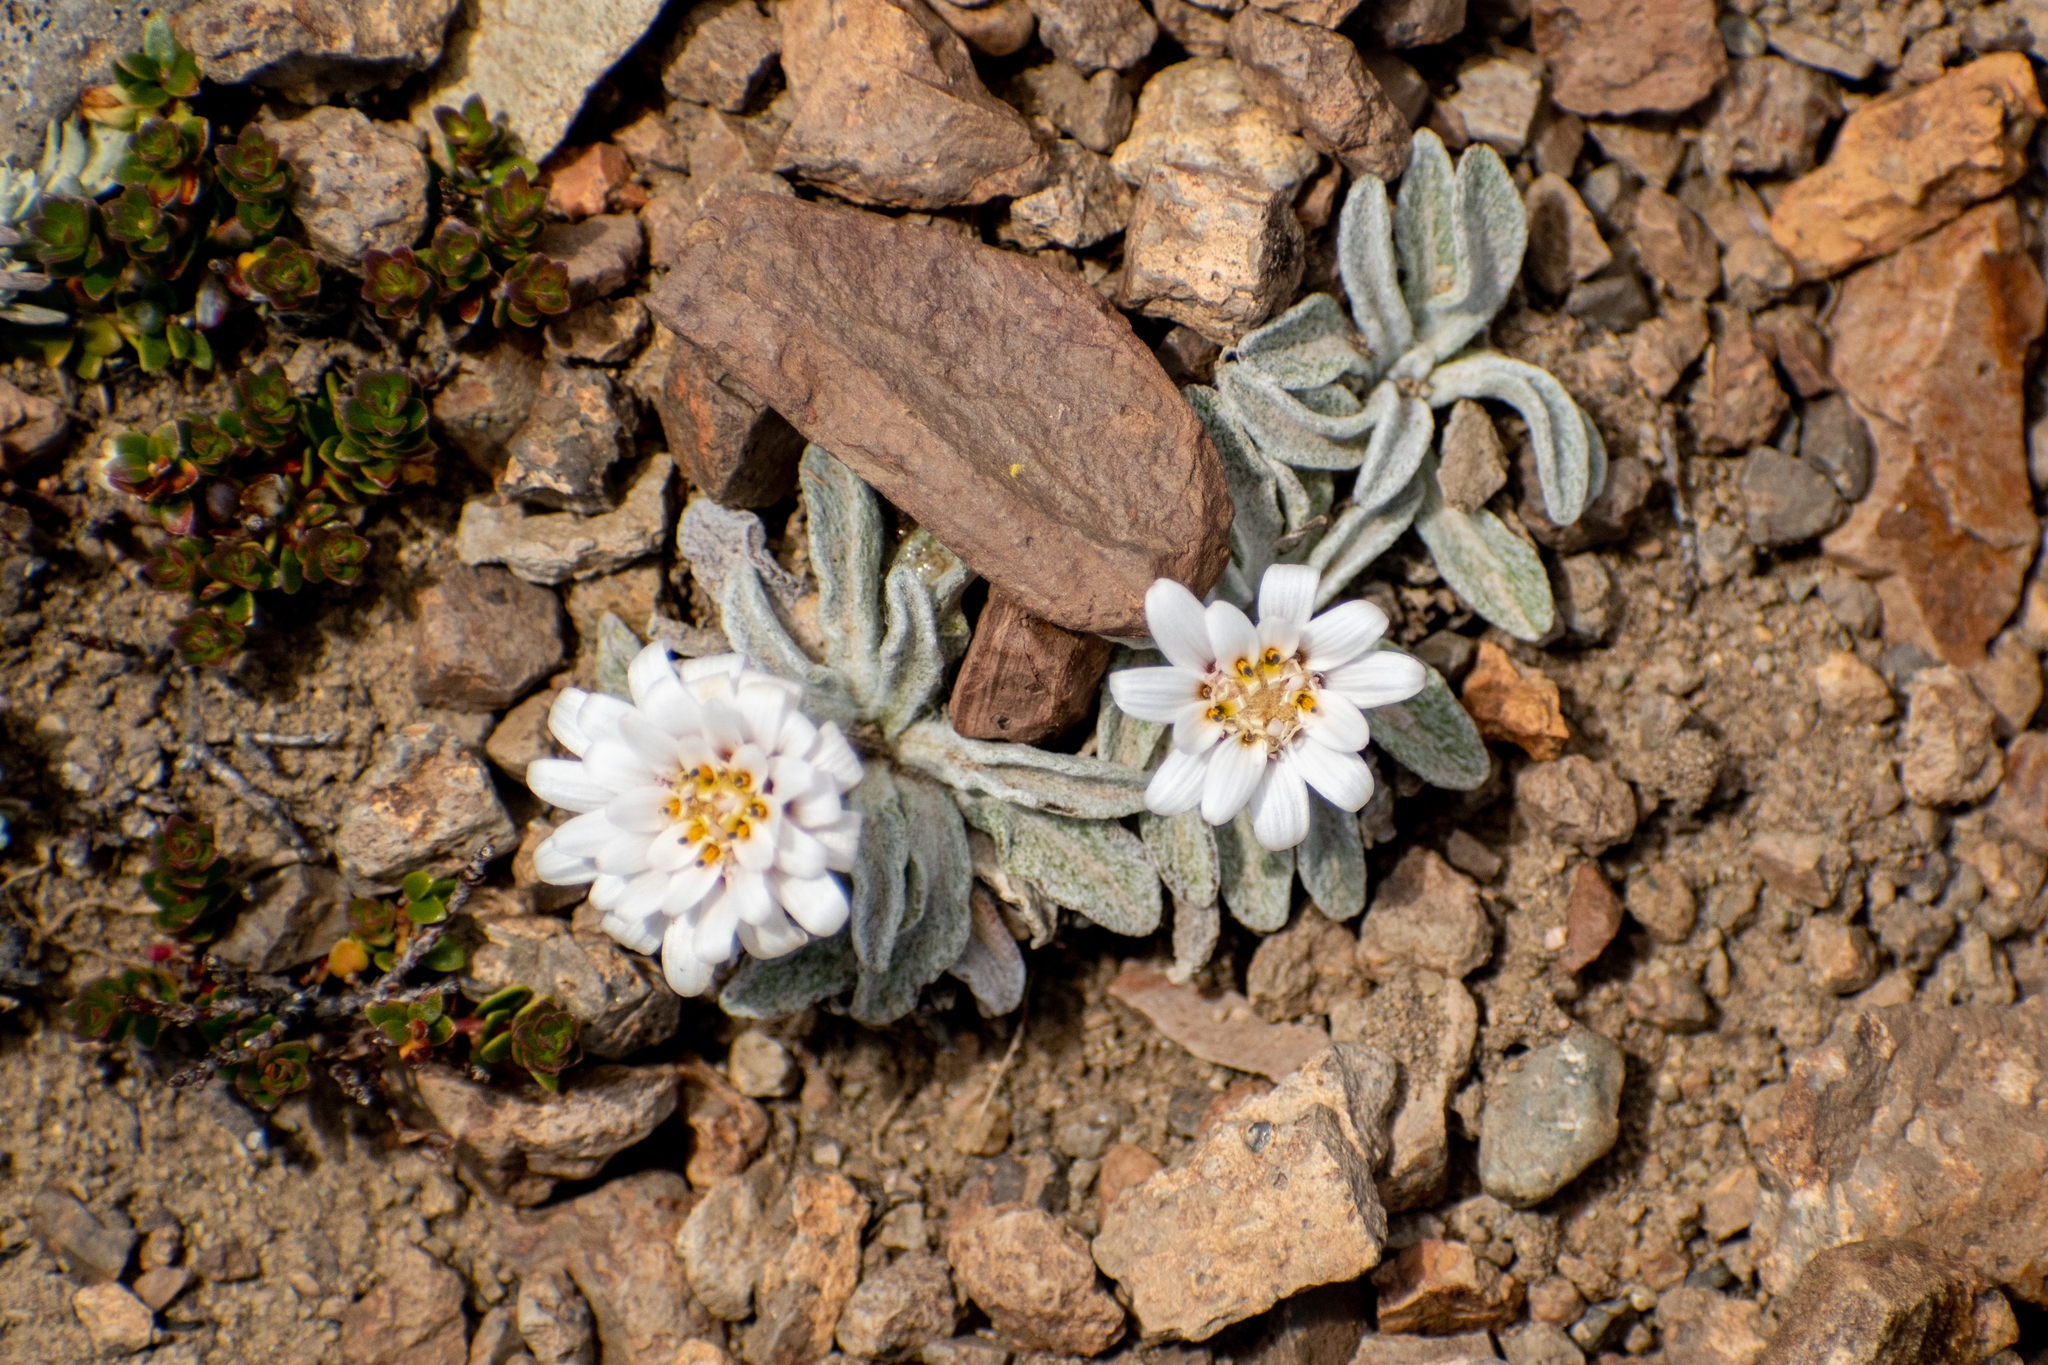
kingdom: Plantae
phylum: Tracheophyta
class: Magnoliopsida
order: Asterales
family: Asteraceae
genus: Leucheria
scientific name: Leucheria diemii
